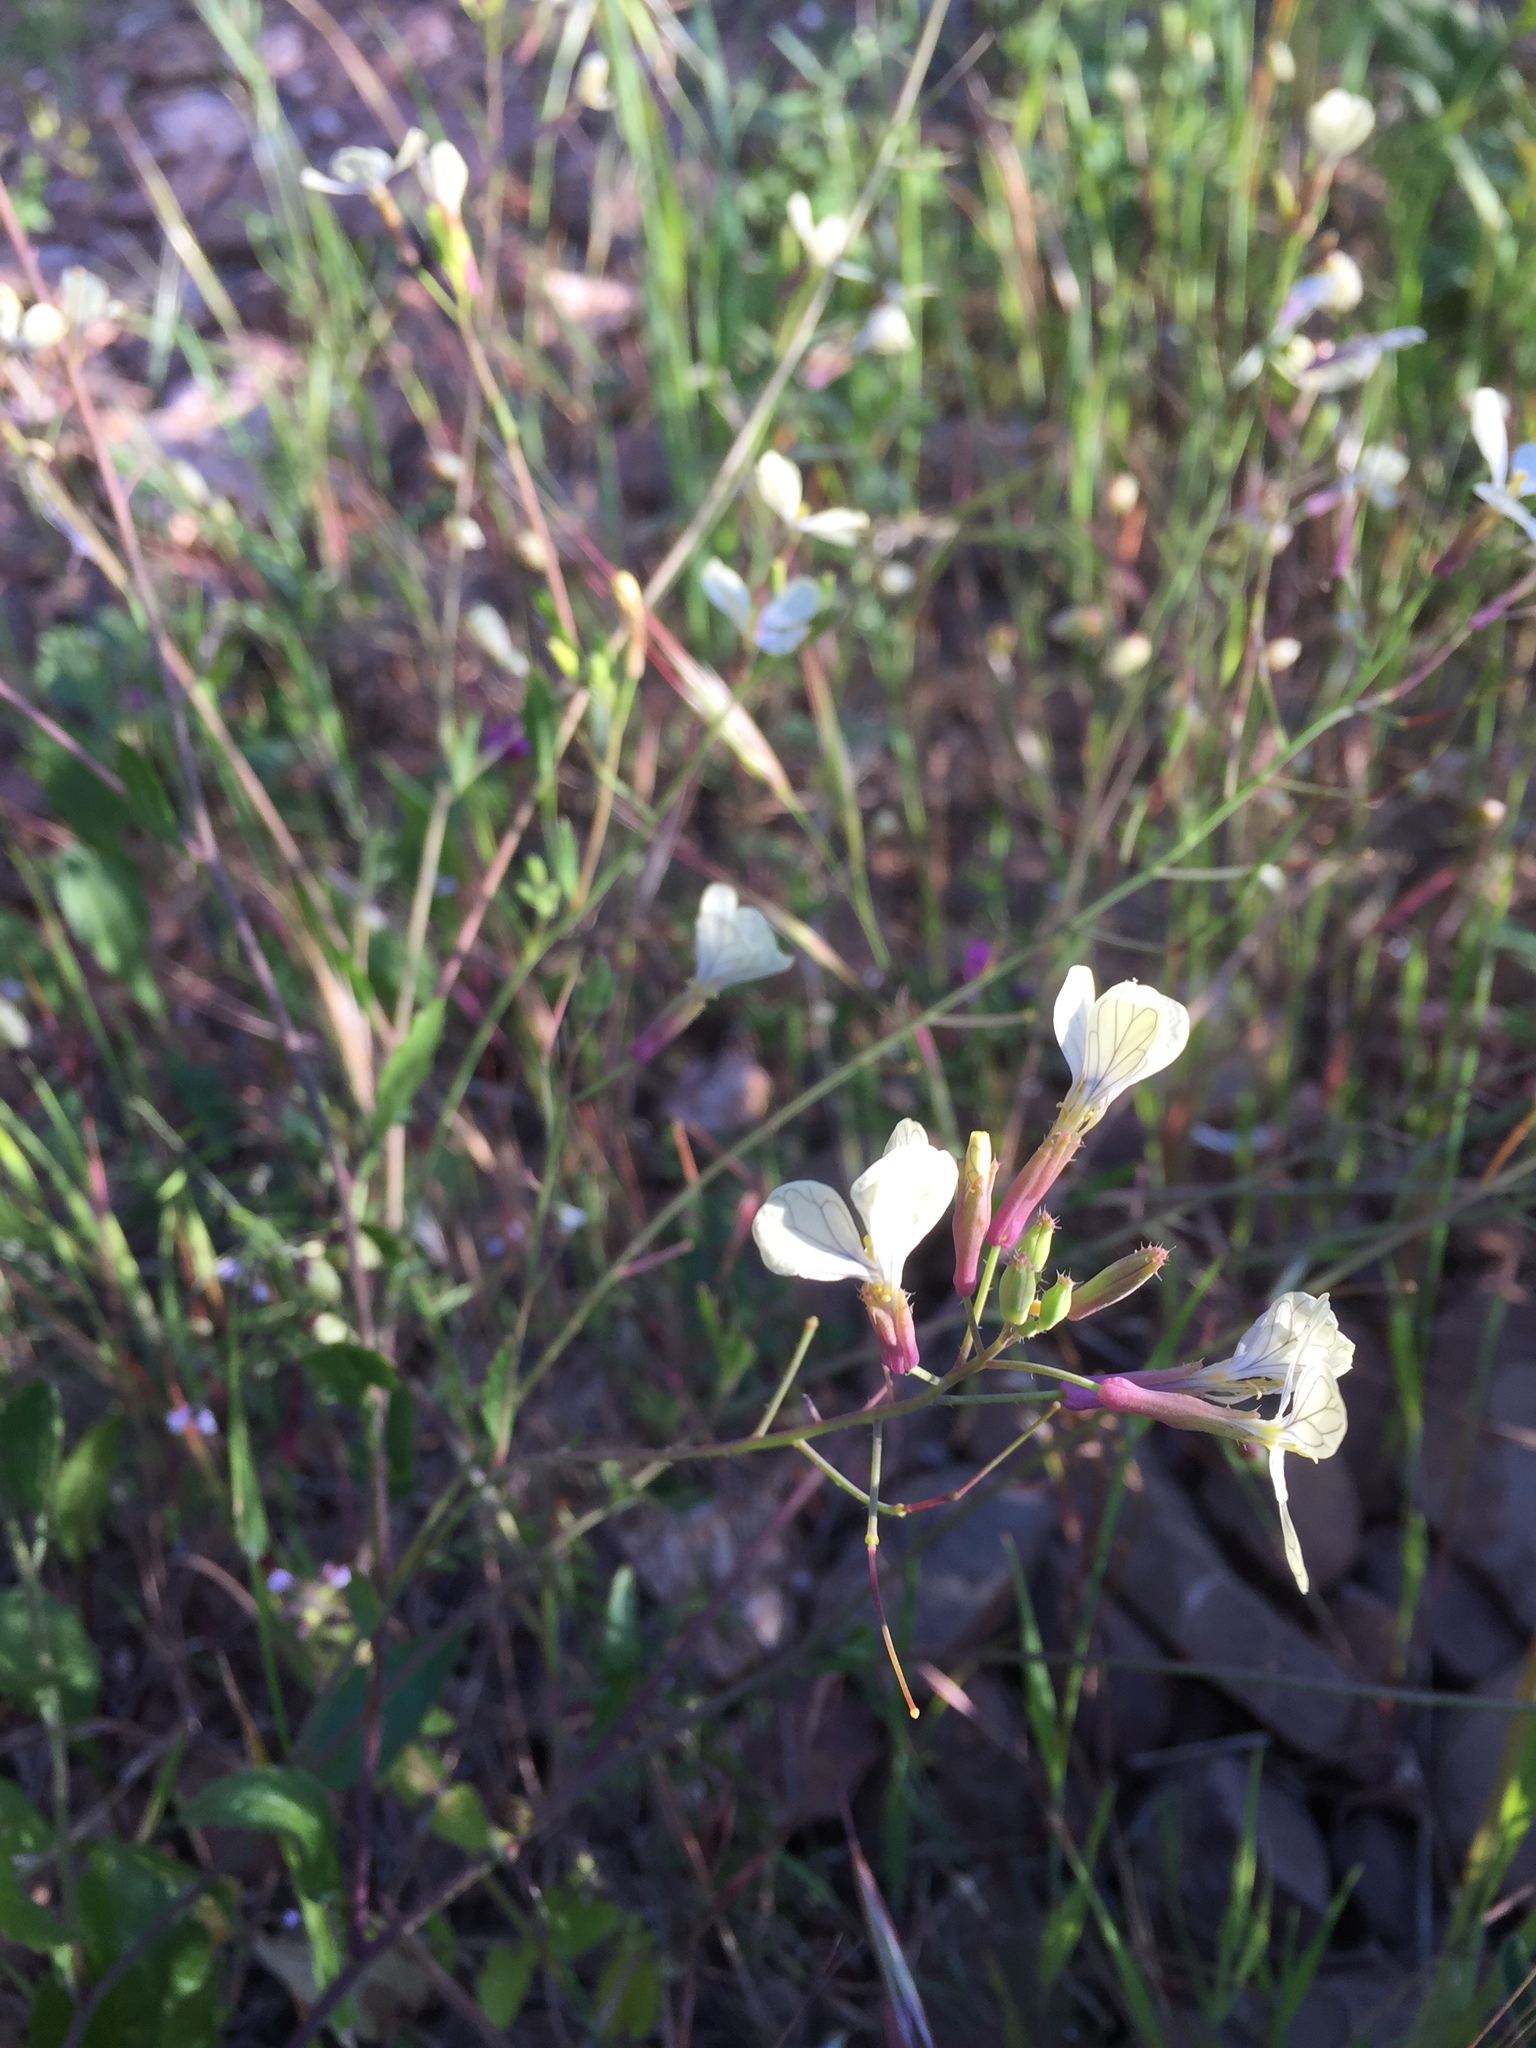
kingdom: Plantae
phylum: Tracheophyta
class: Magnoliopsida
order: Brassicales
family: Brassicaceae
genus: Raphanus
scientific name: Raphanus raphanistrum
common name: Wild radish
